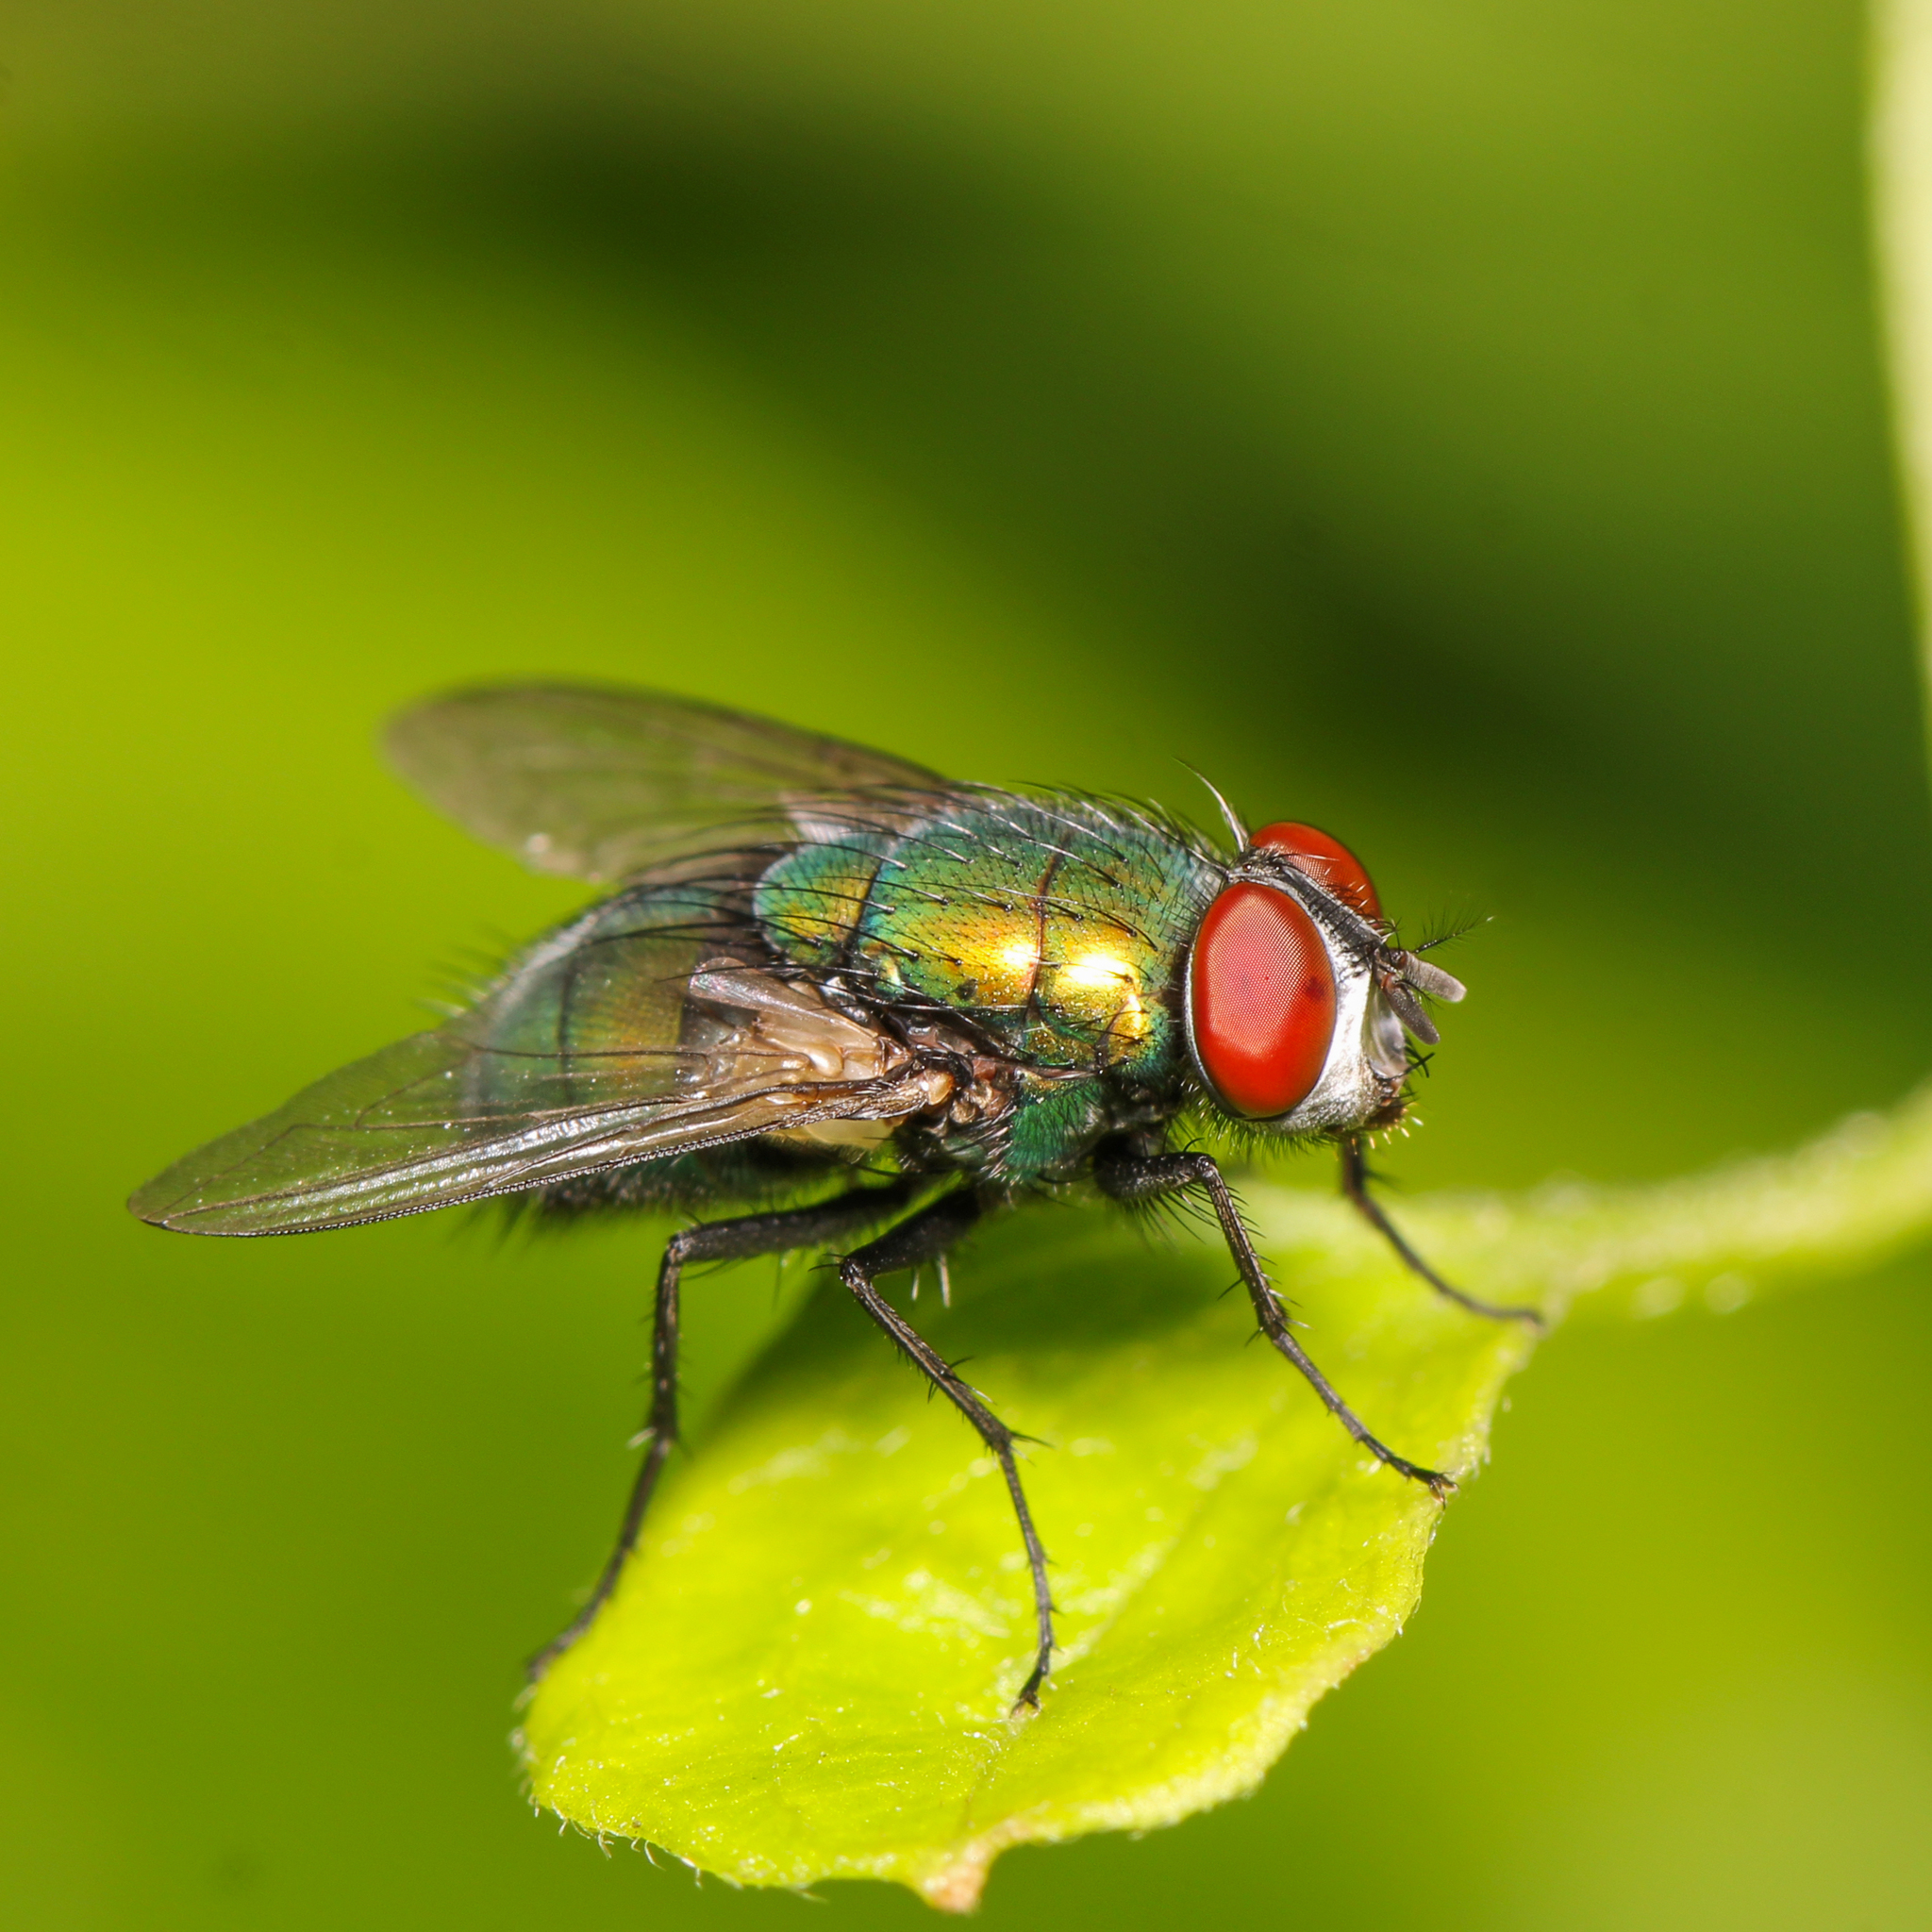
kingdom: Animalia
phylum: Arthropoda
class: Insecta
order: Diptera
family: Calliphoridae
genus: Lucilia
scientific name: Lucilia sericata
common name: Blow fly
